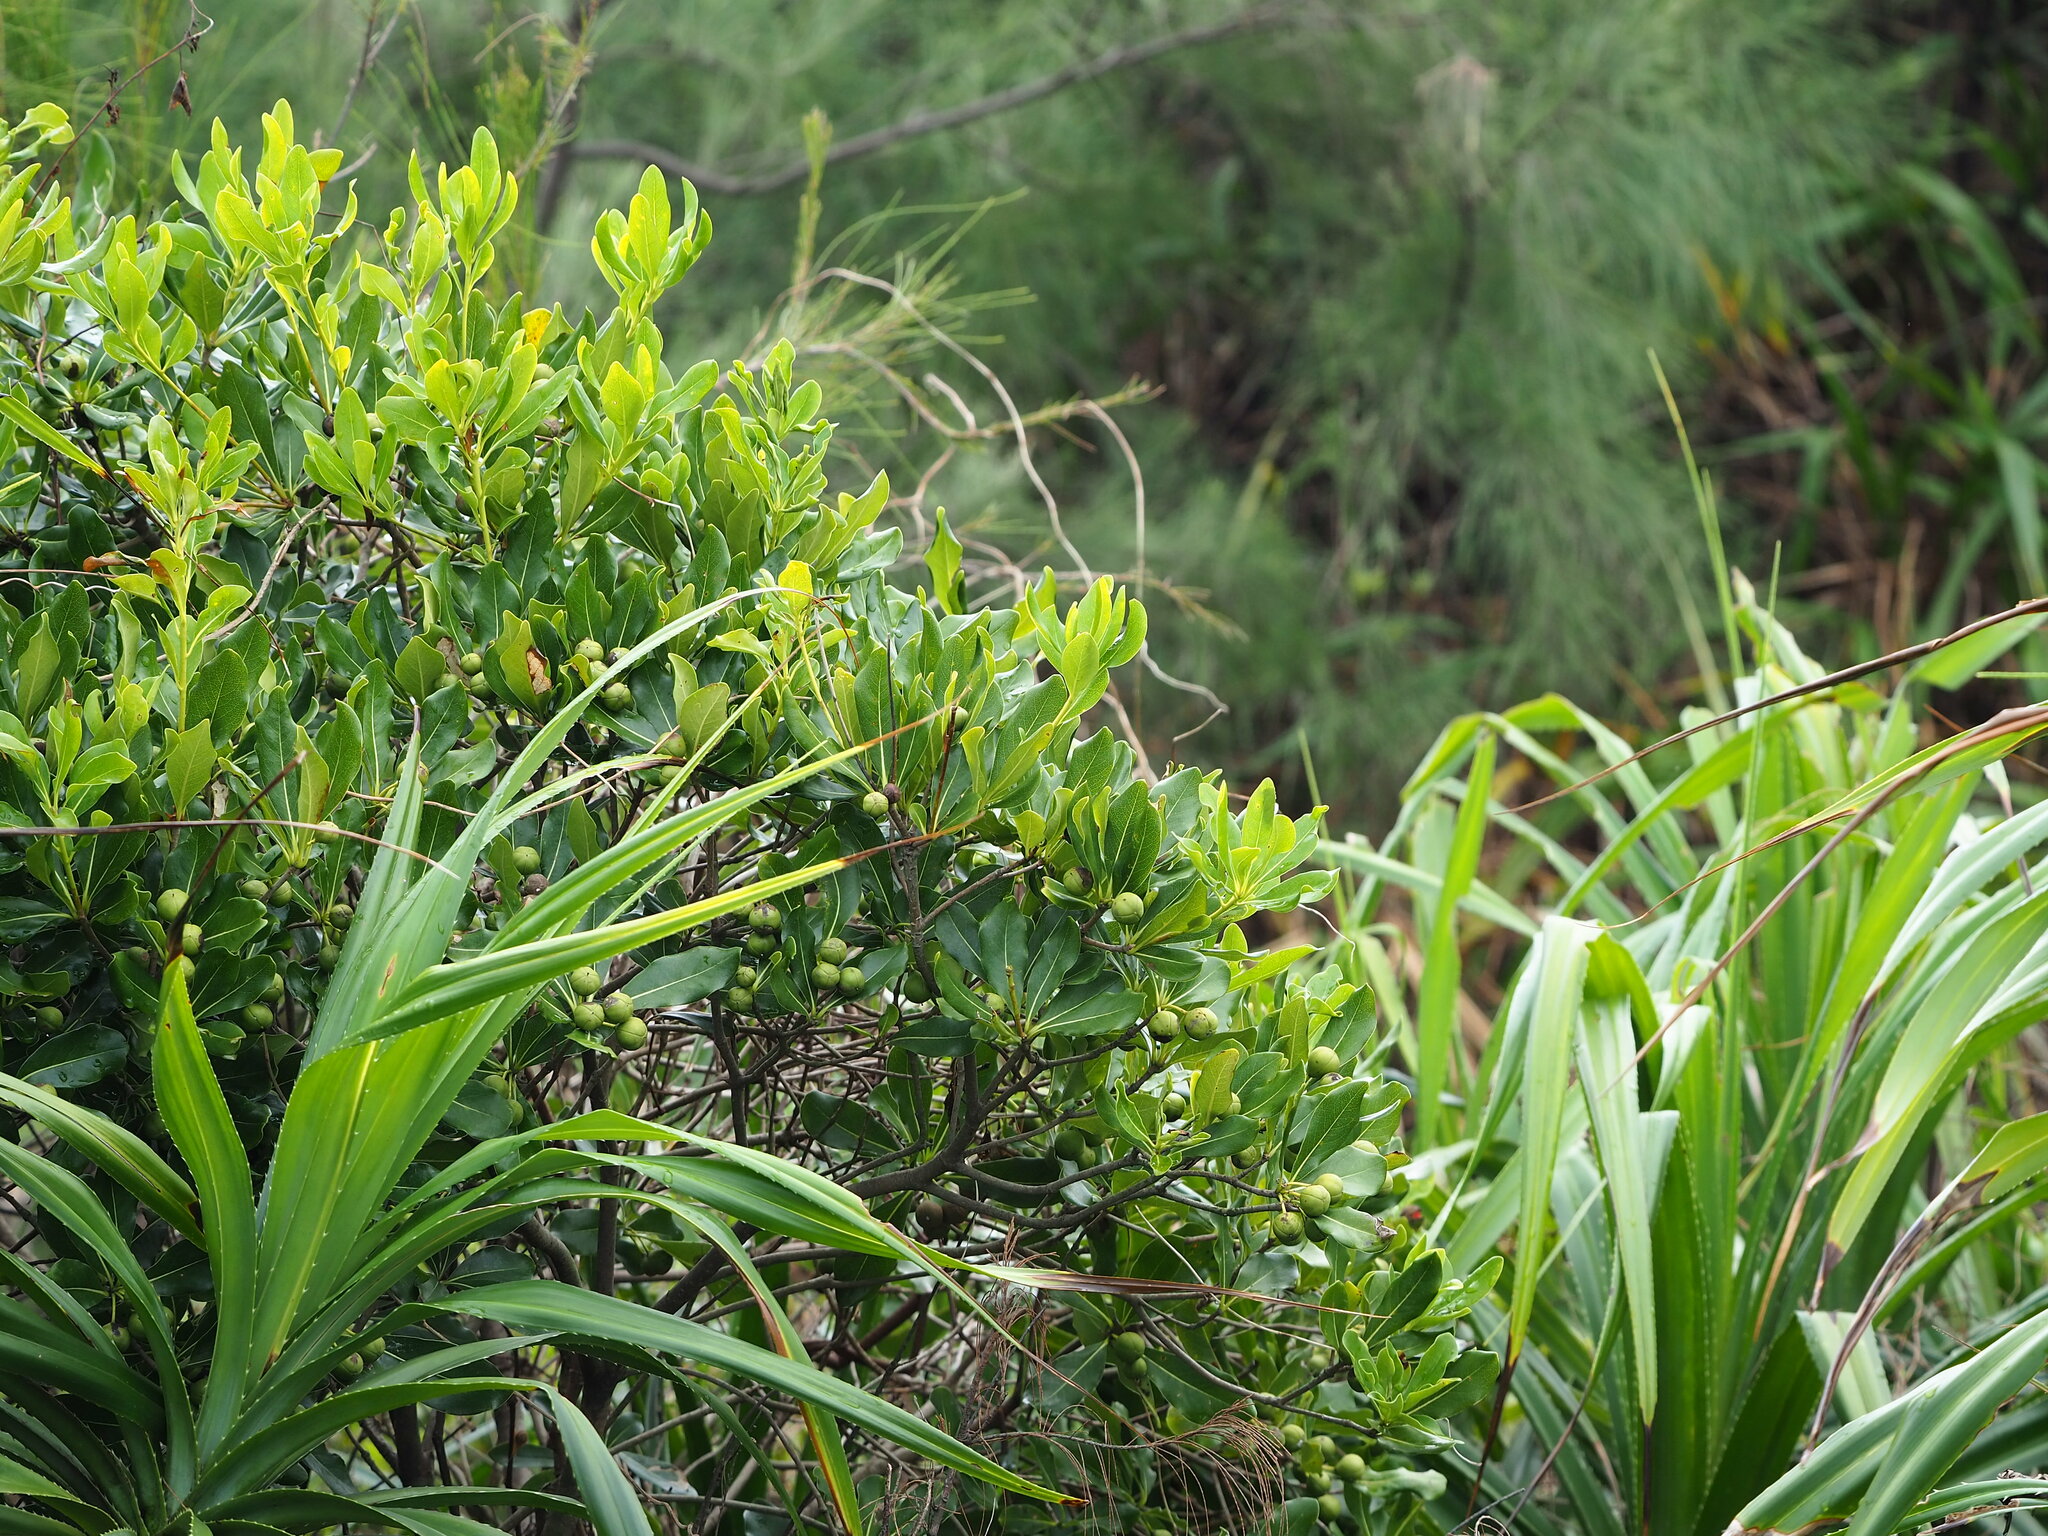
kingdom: Plantae
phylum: Tracheophyta
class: Magnoliopsida
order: Apiales
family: Pittosporaceae
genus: Pittosporum
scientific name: Pittosporum tobira
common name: Japanese cheesewood
